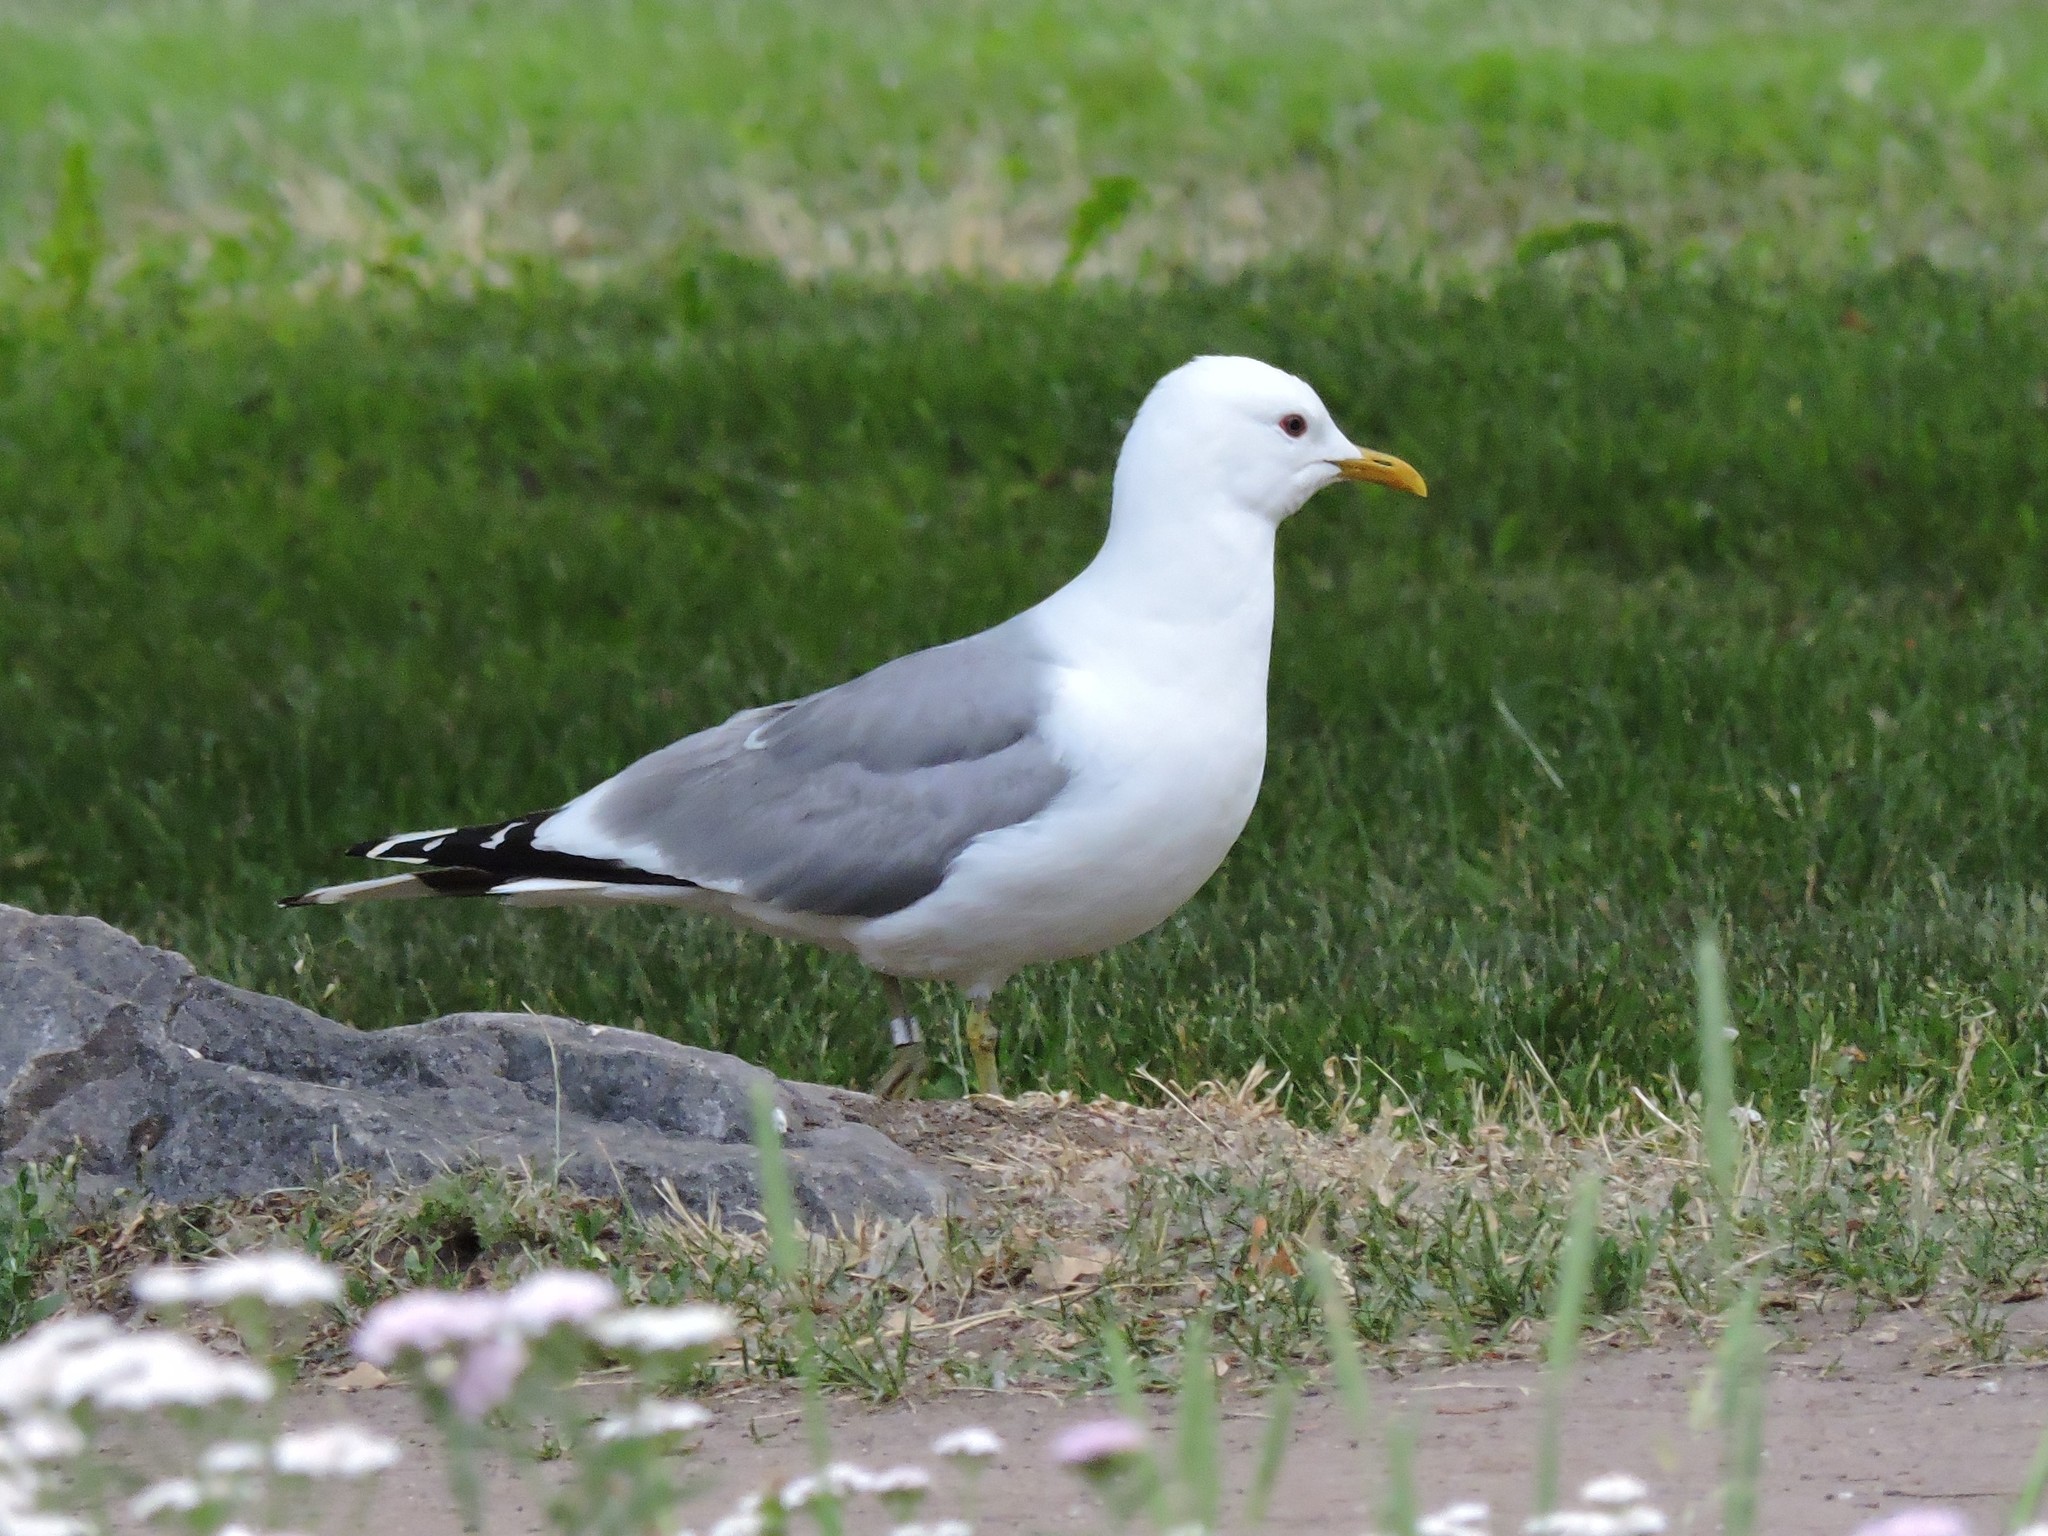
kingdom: Animalia
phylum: Chordata
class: Aves
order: Charadriiformes
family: Laridae
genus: Larus
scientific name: Larus canus
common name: Mew gull
